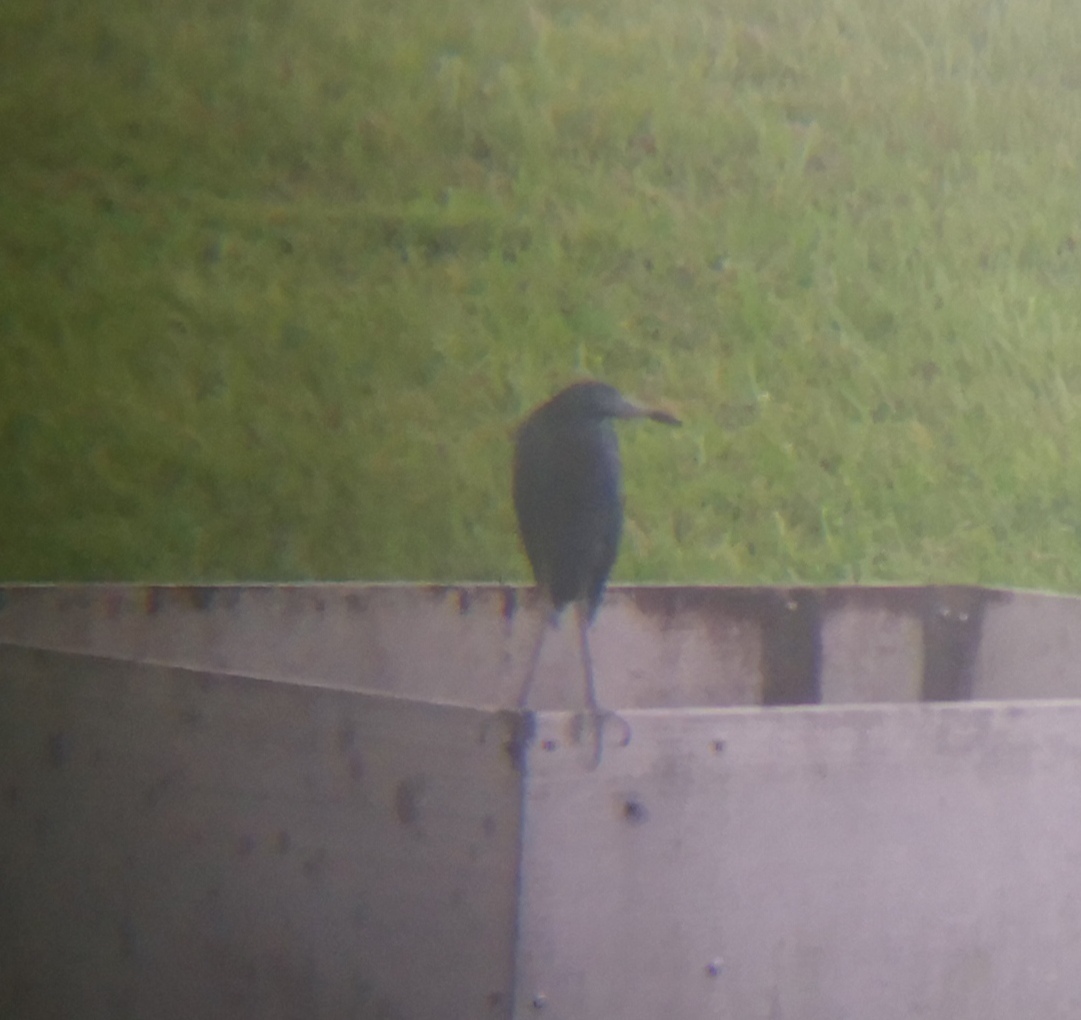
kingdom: Animalia
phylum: Chordata
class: Aves
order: Pelecaniformes
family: Ardeidae
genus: Egretta
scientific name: Egretta caerulea
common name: Little blue heron
